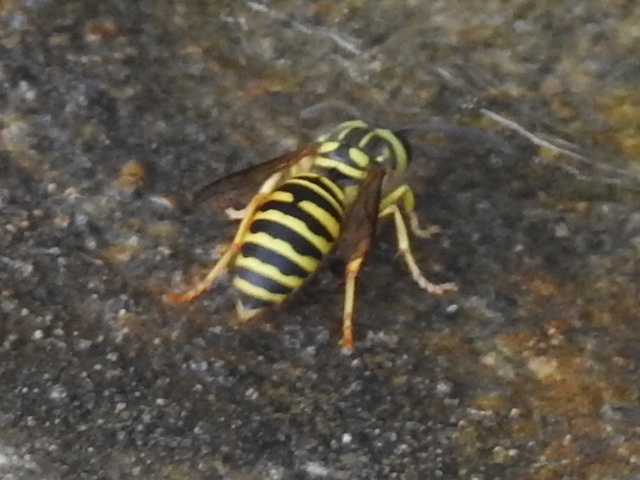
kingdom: Animalia
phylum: Arthropoda
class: Insecta
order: Hymenoptera
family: Vespidae
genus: Vespula
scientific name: Vespula squamosa
